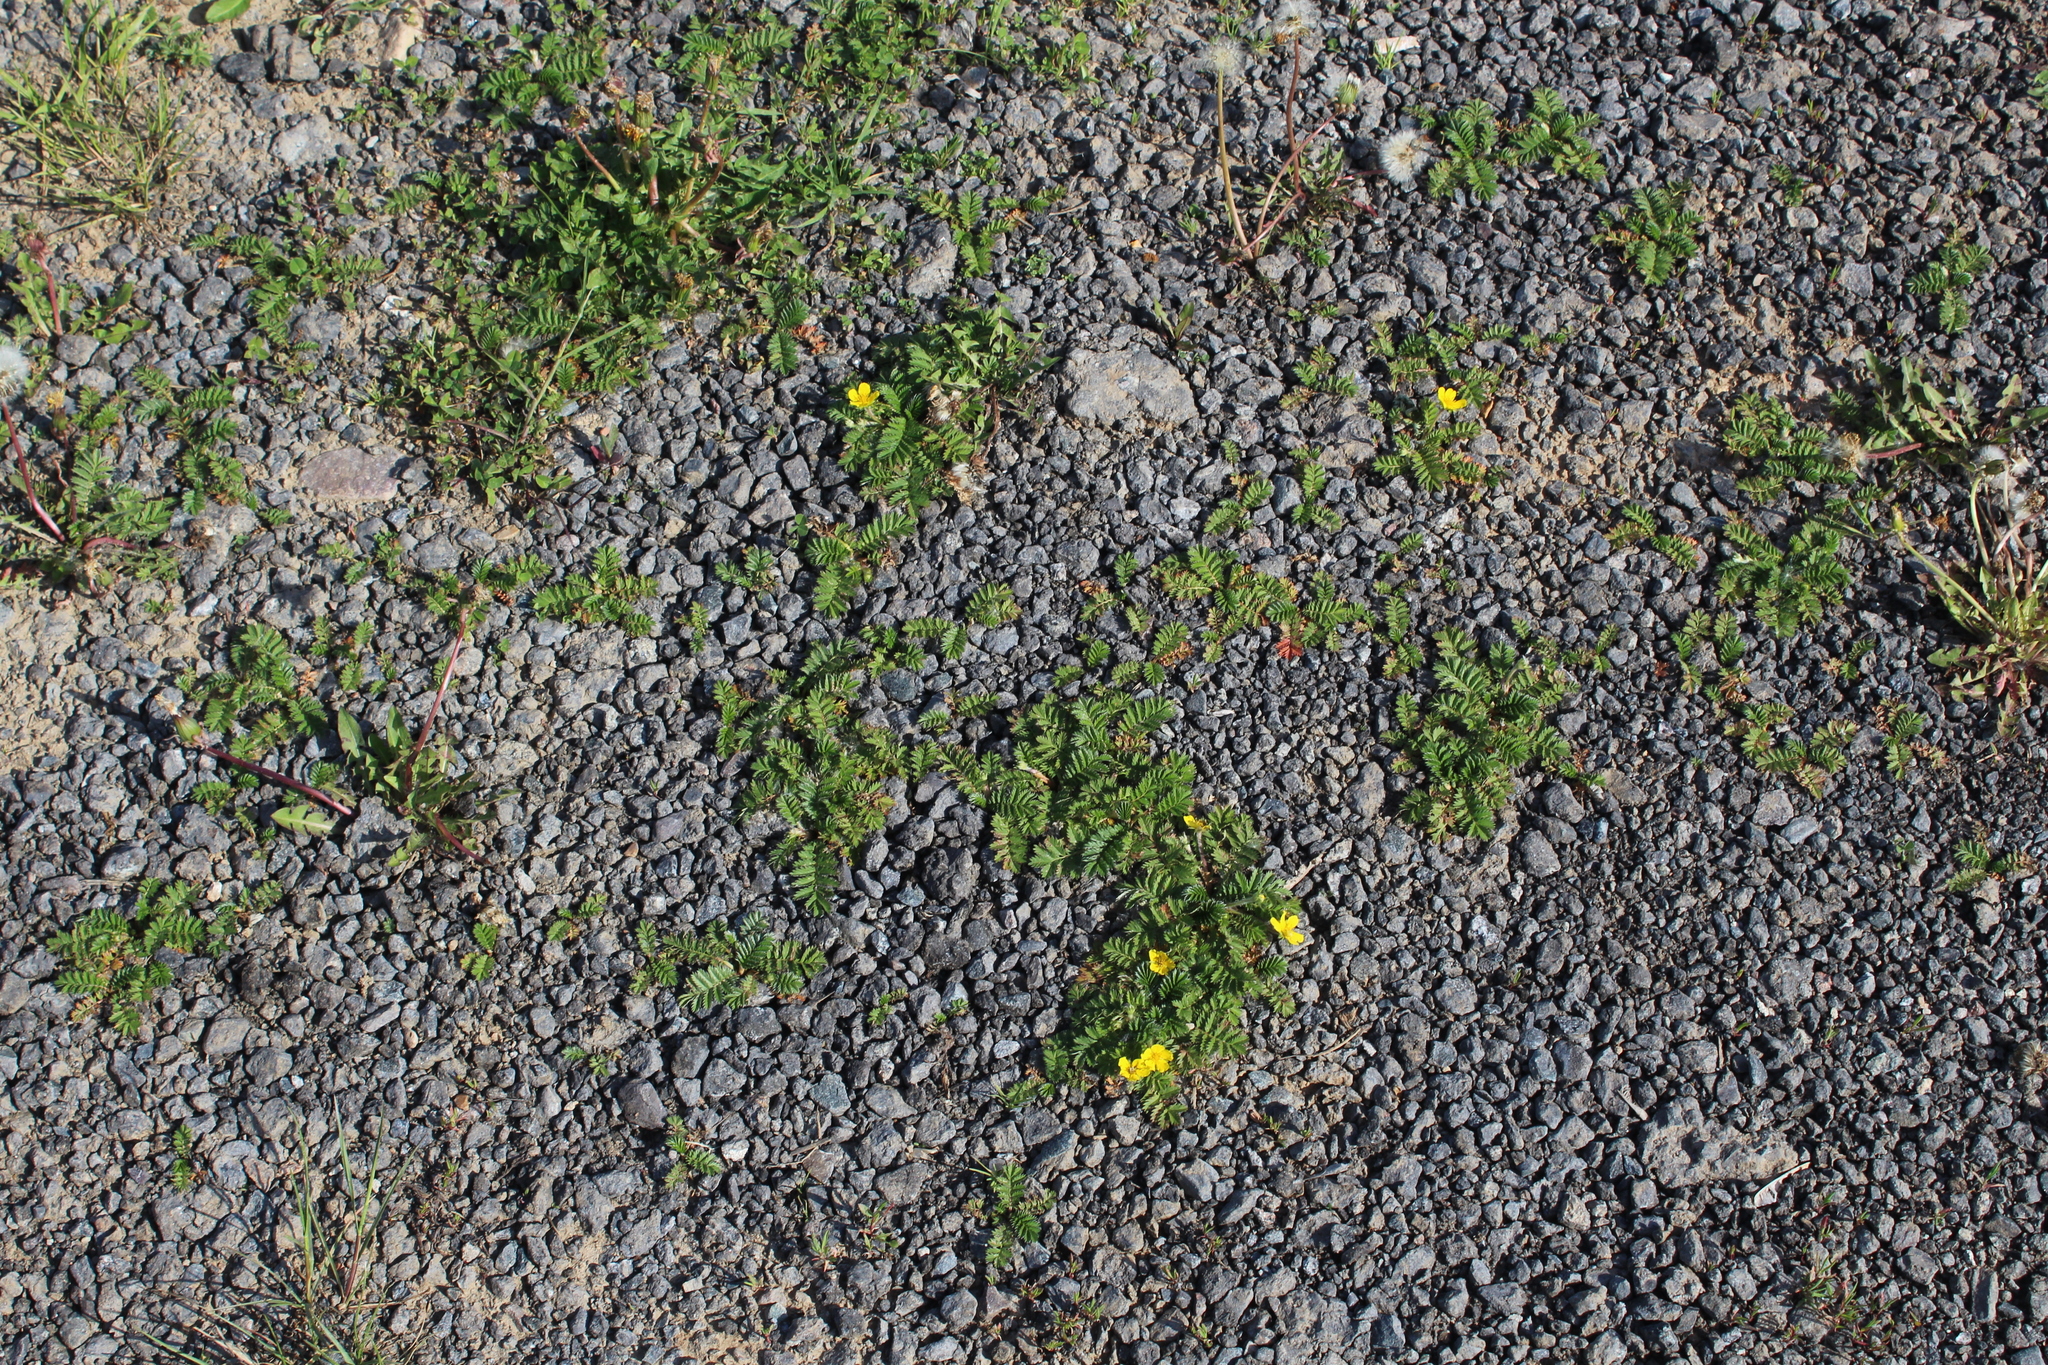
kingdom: Plantae
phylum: Tracheophyta
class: Magnoliopsida
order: Rosales
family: Rosaceae
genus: Argentina
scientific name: Argentina anserina
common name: Common silverweed
